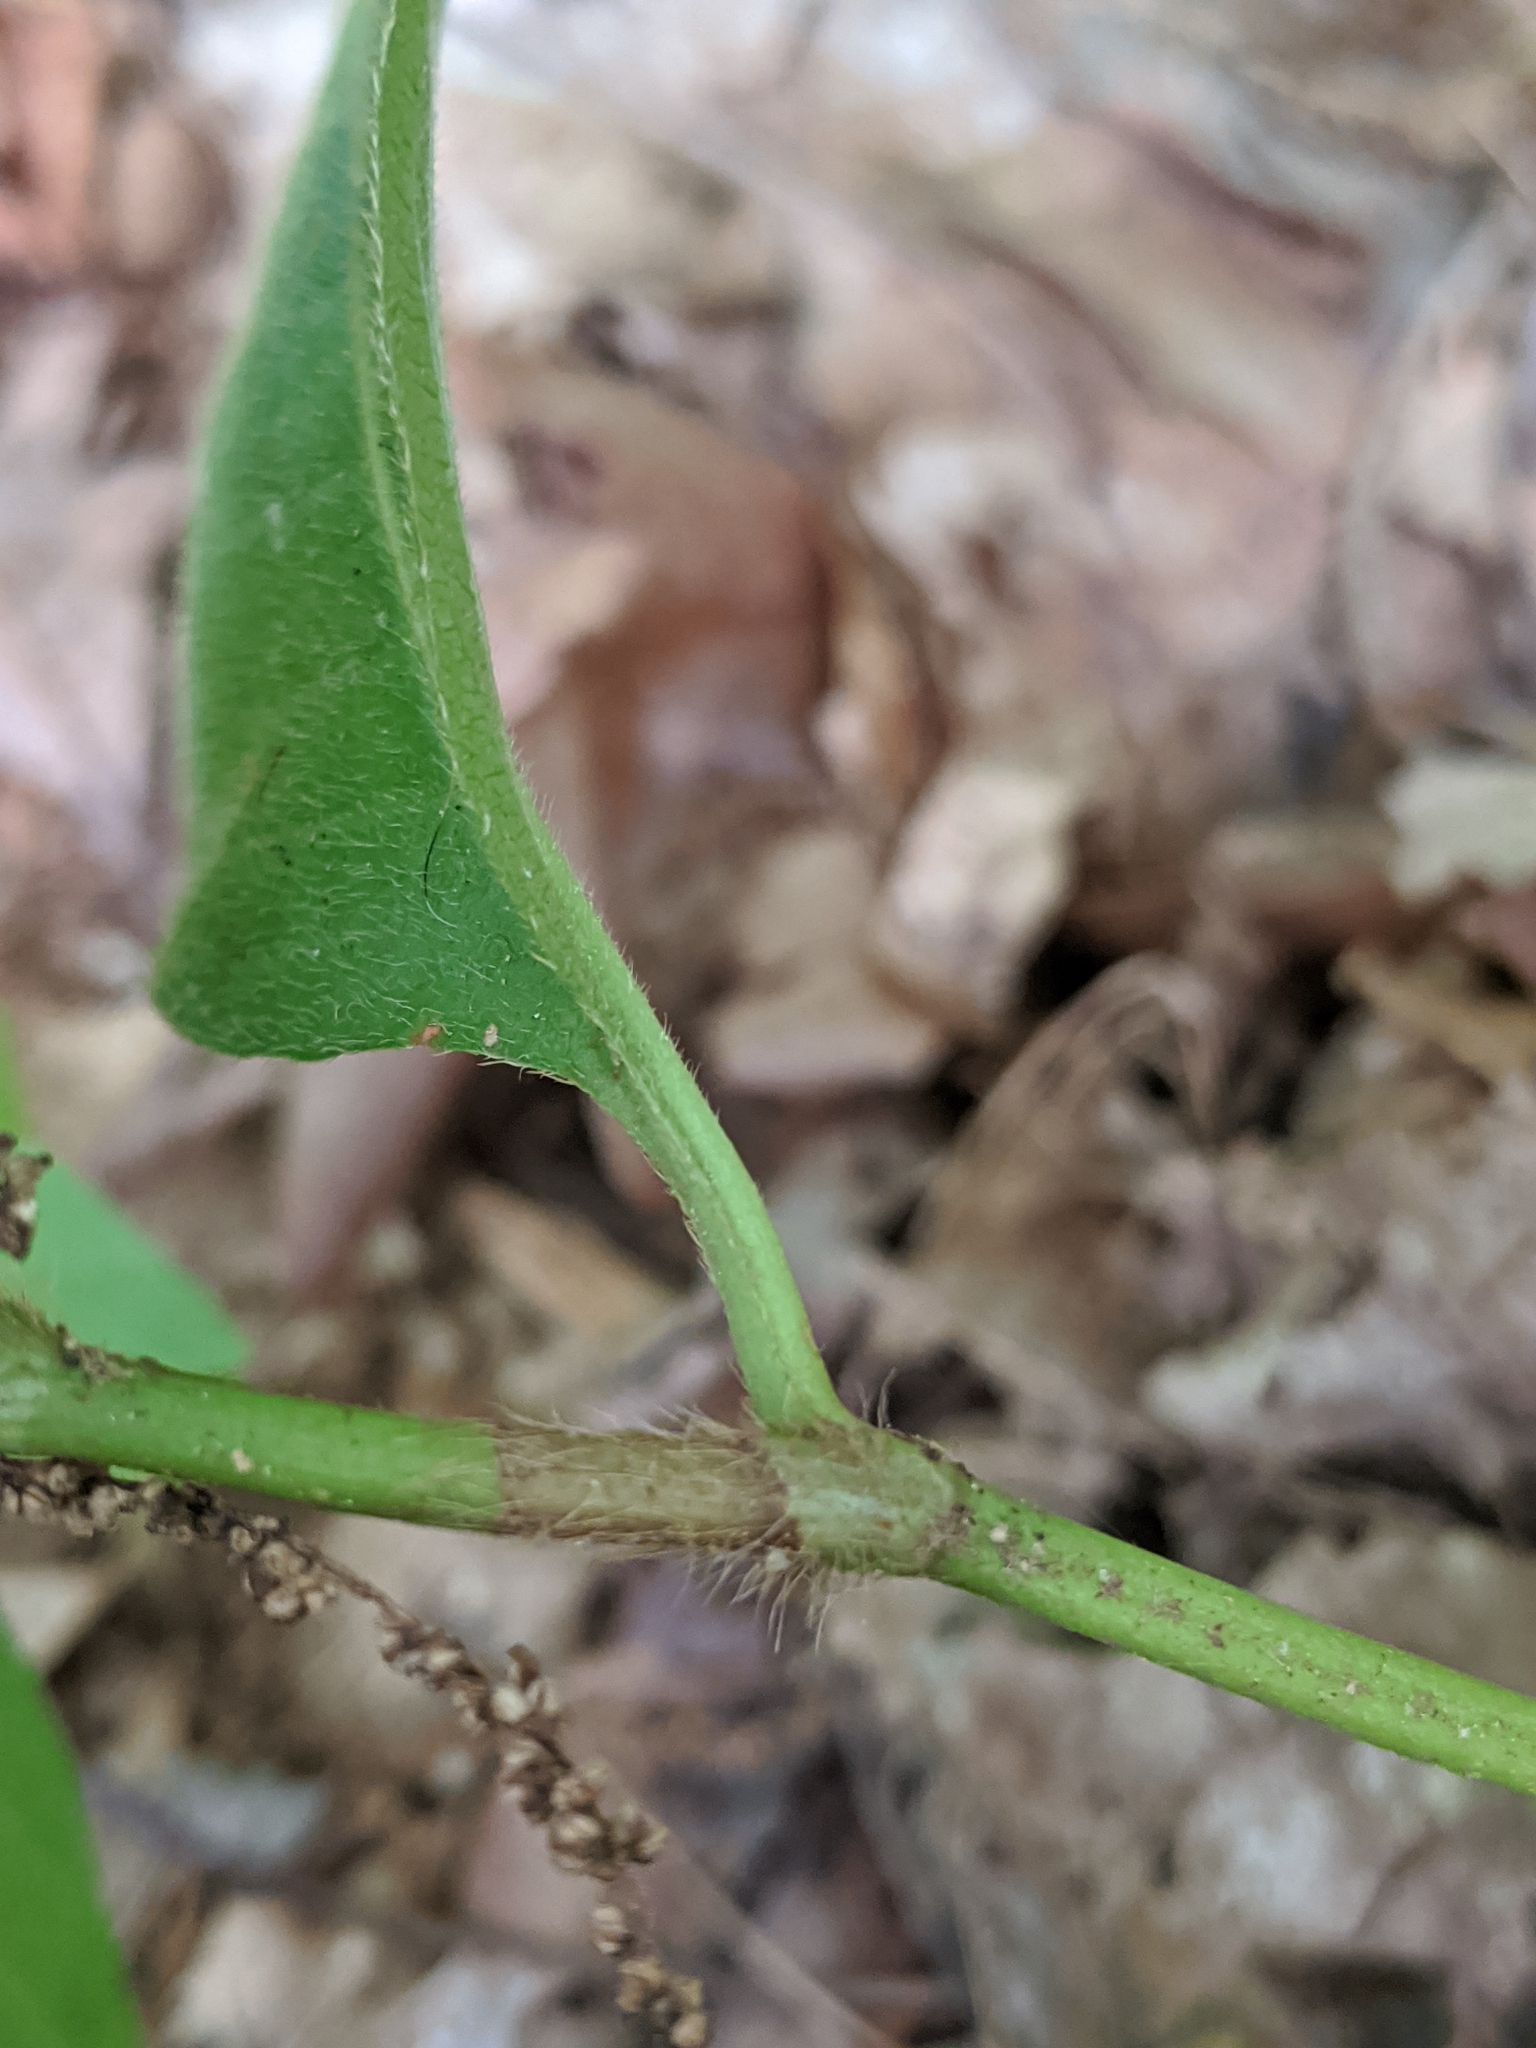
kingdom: Plantae
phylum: Tracheophyta
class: Magnoliopsida
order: Caryophyllales
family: Polygonaceae
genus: Persicaria
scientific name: Persicaria virginiana
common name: Jumpseed
